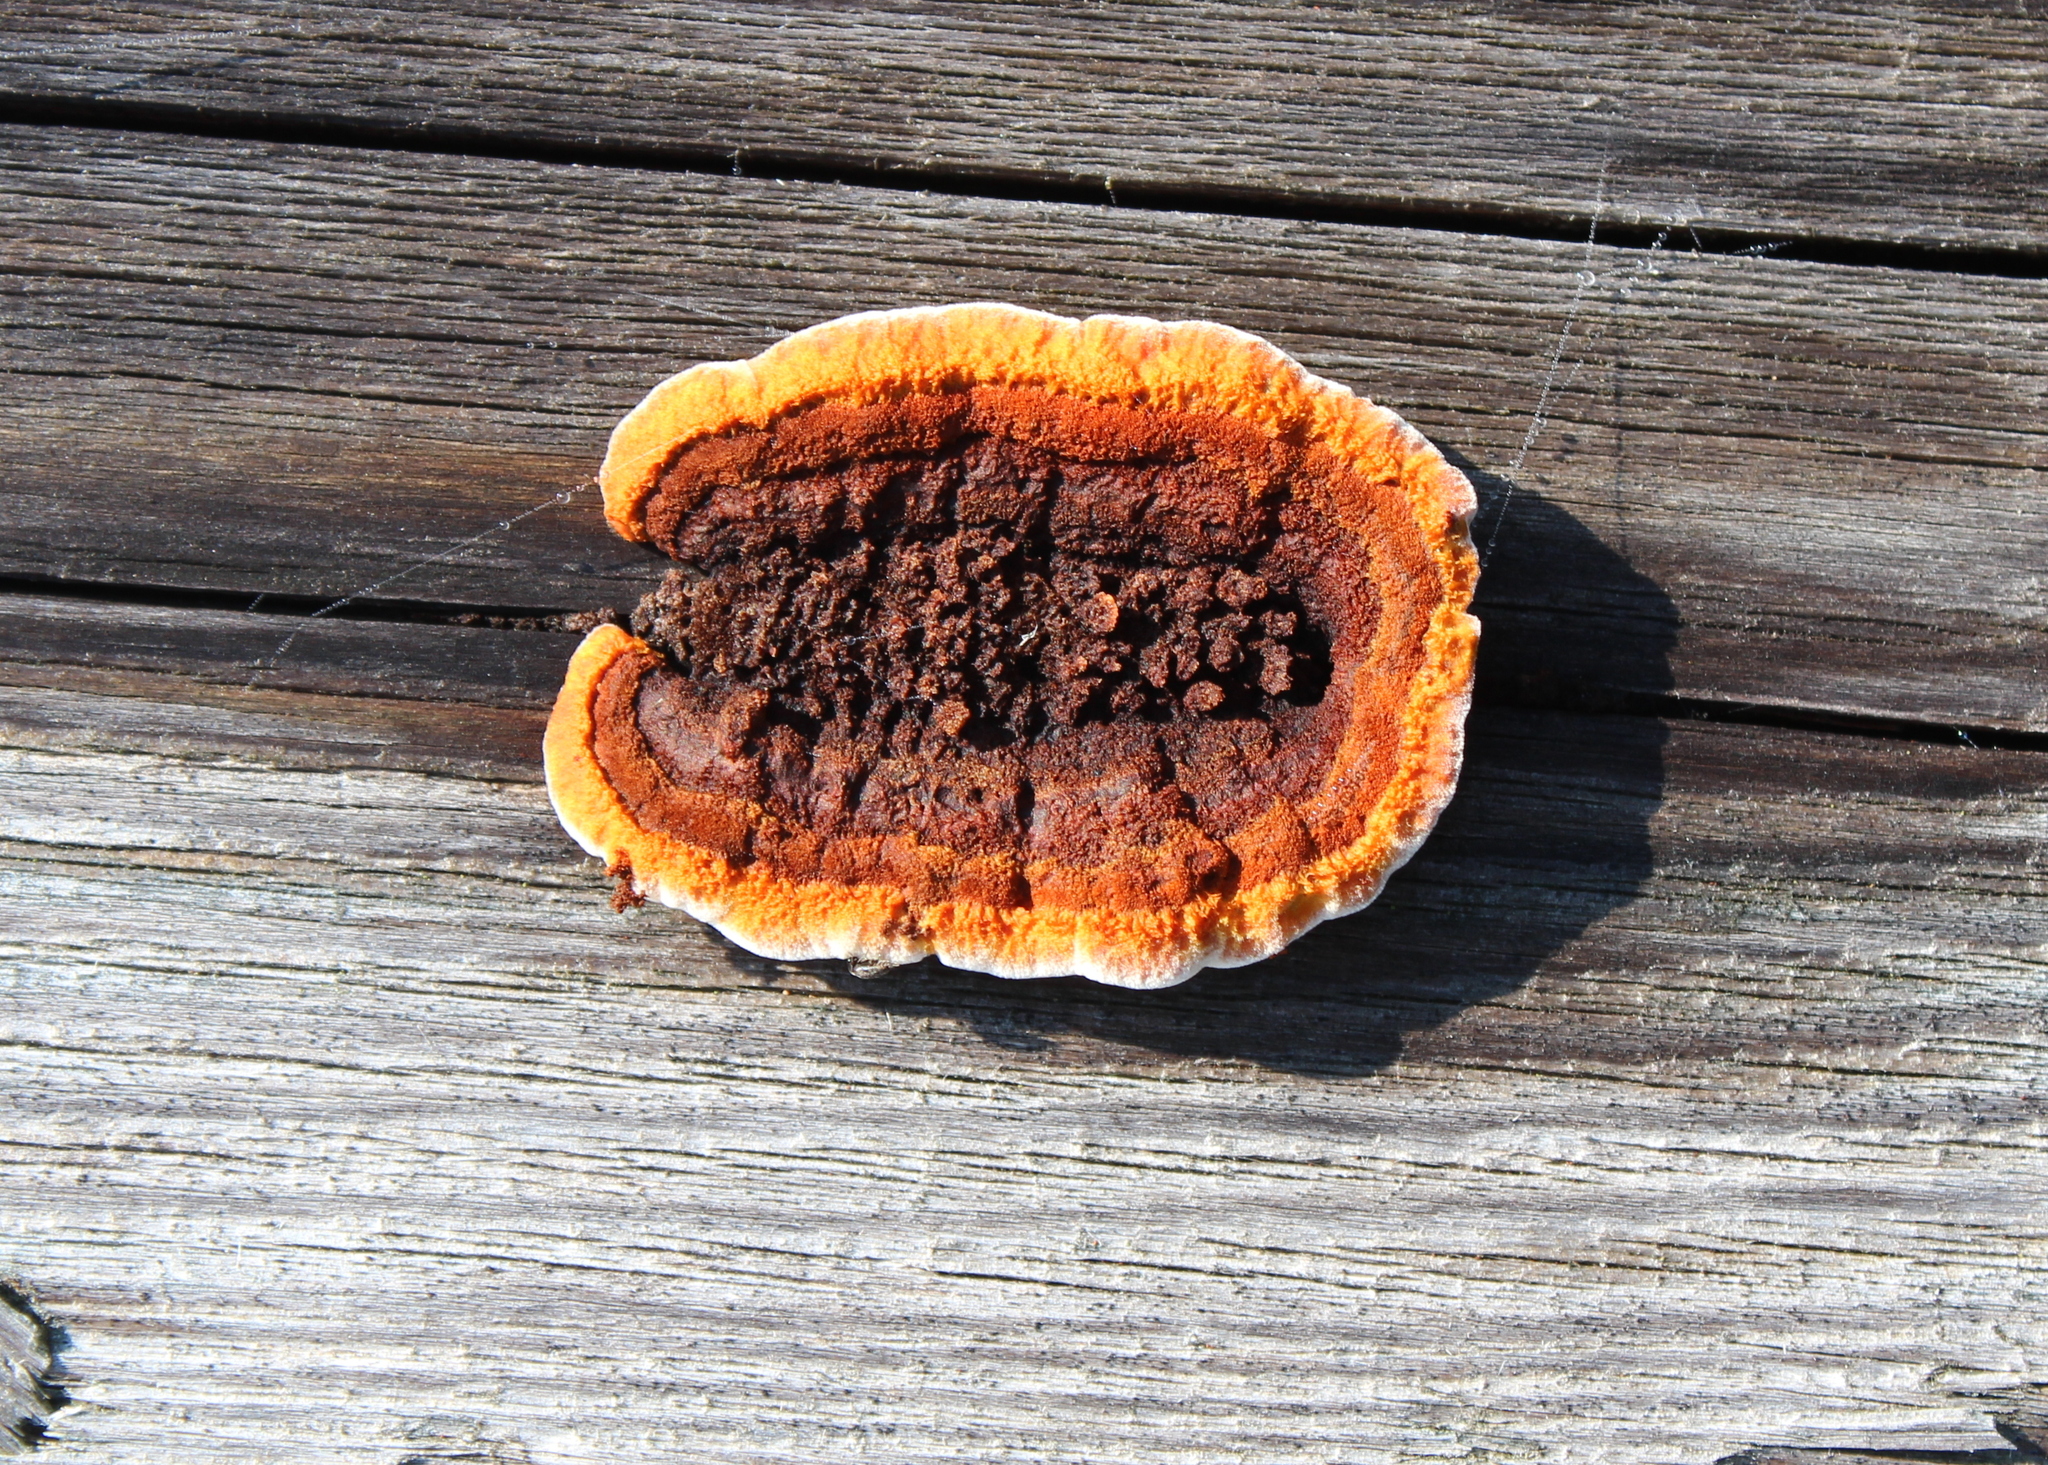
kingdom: Fungi
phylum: Basidiomycota
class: Agaricomycetes
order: Gloeophyllales
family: Gloeophyllaceae
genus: Gloeophyllum
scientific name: Gloeophyllum sepiarium
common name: Conifer mazegill
